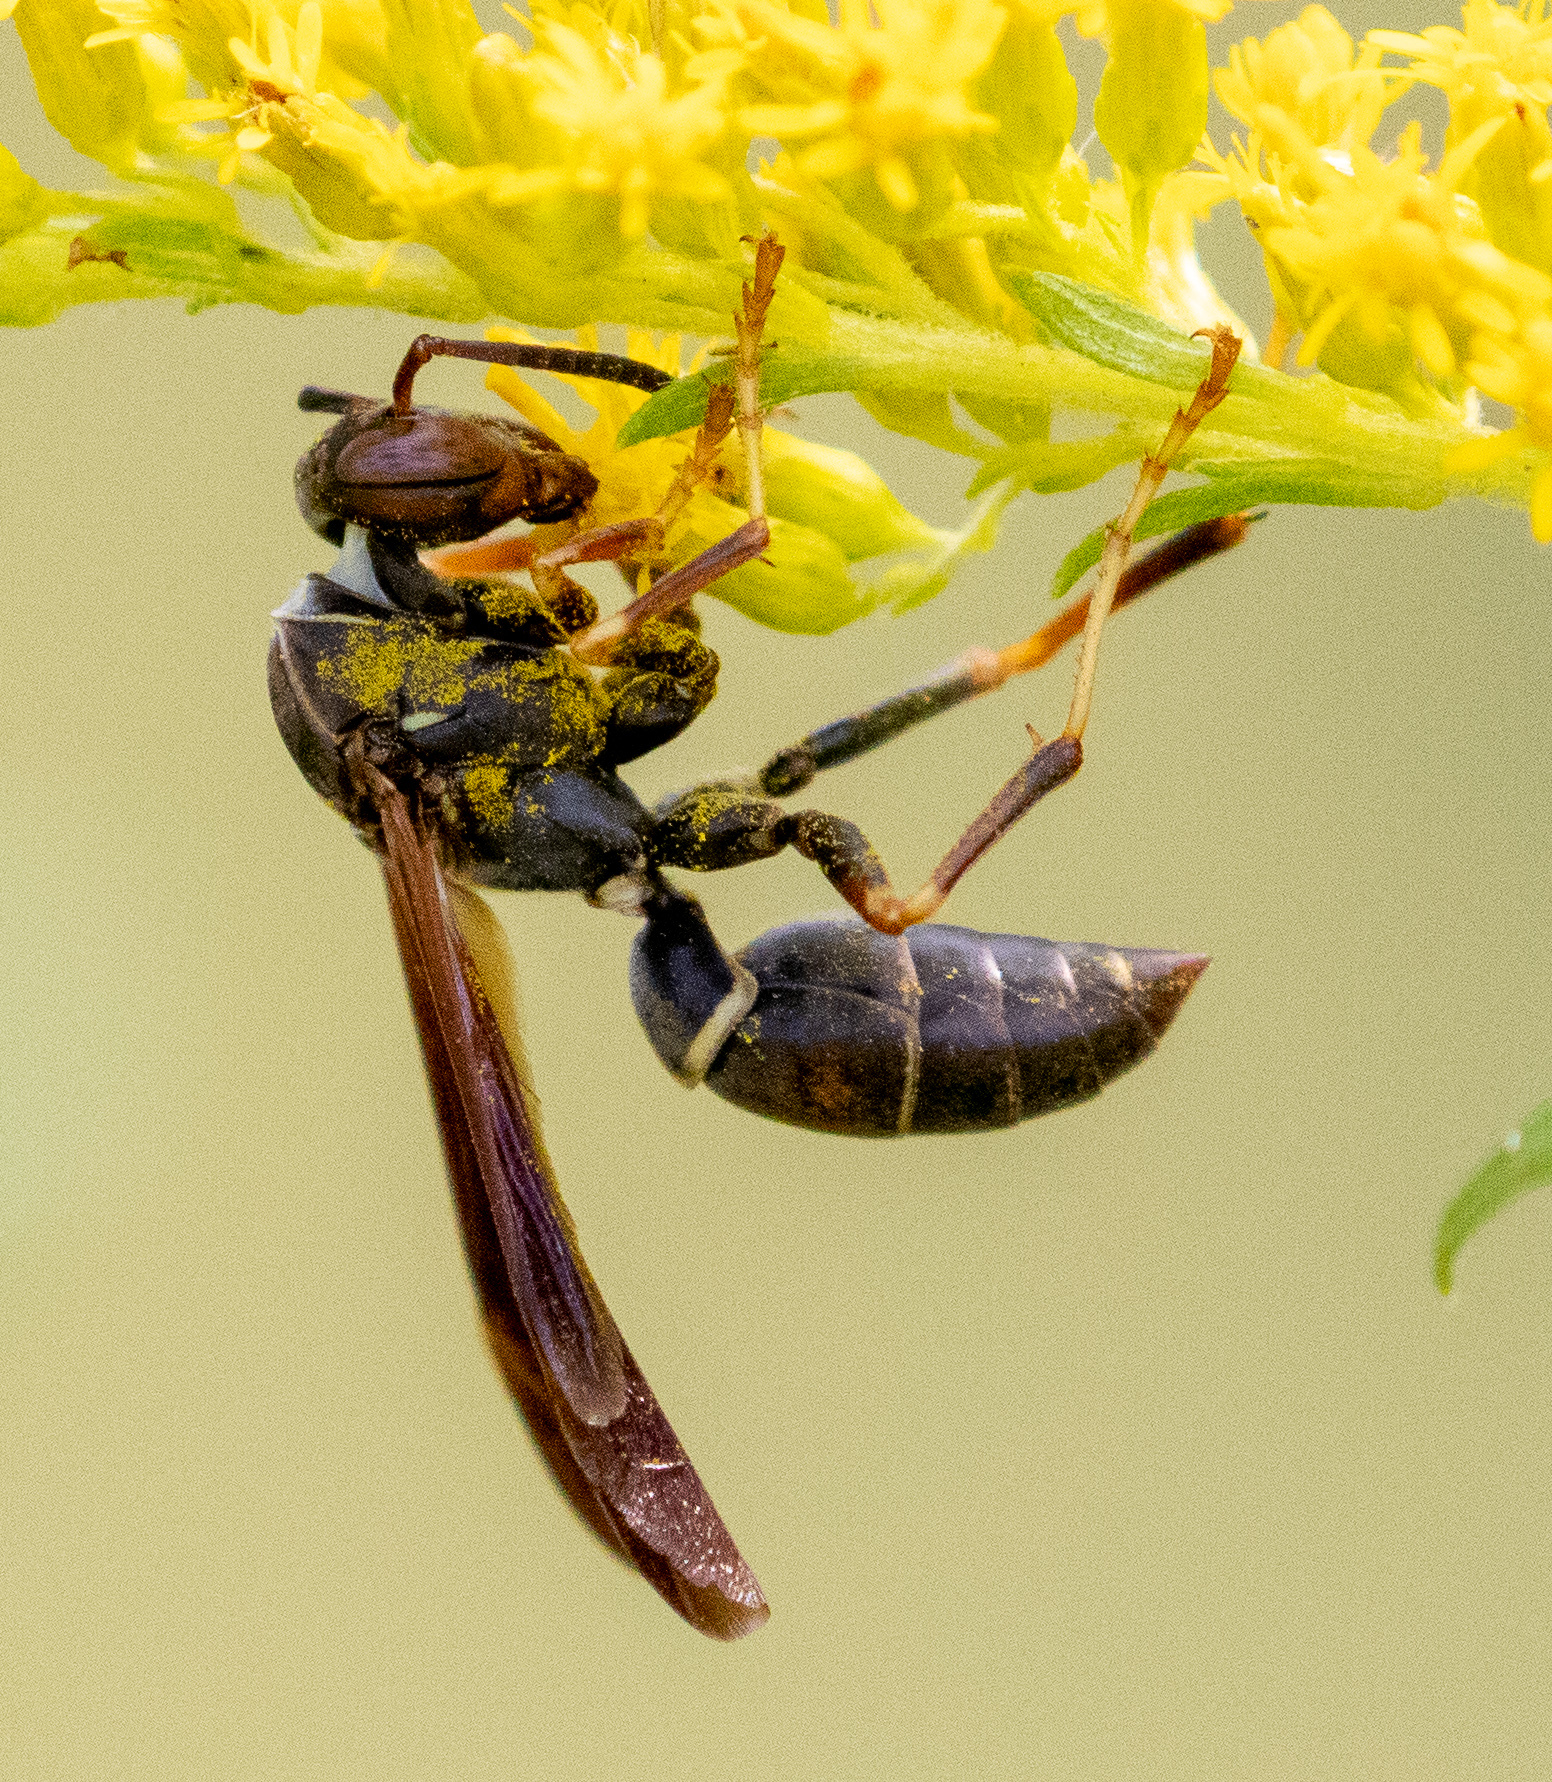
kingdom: Animalia
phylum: Arthropoda
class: Insecta
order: Hymenoptera
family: Eumenidae
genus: Polistes
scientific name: Polistes fuscatus
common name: Dark paper wasp
